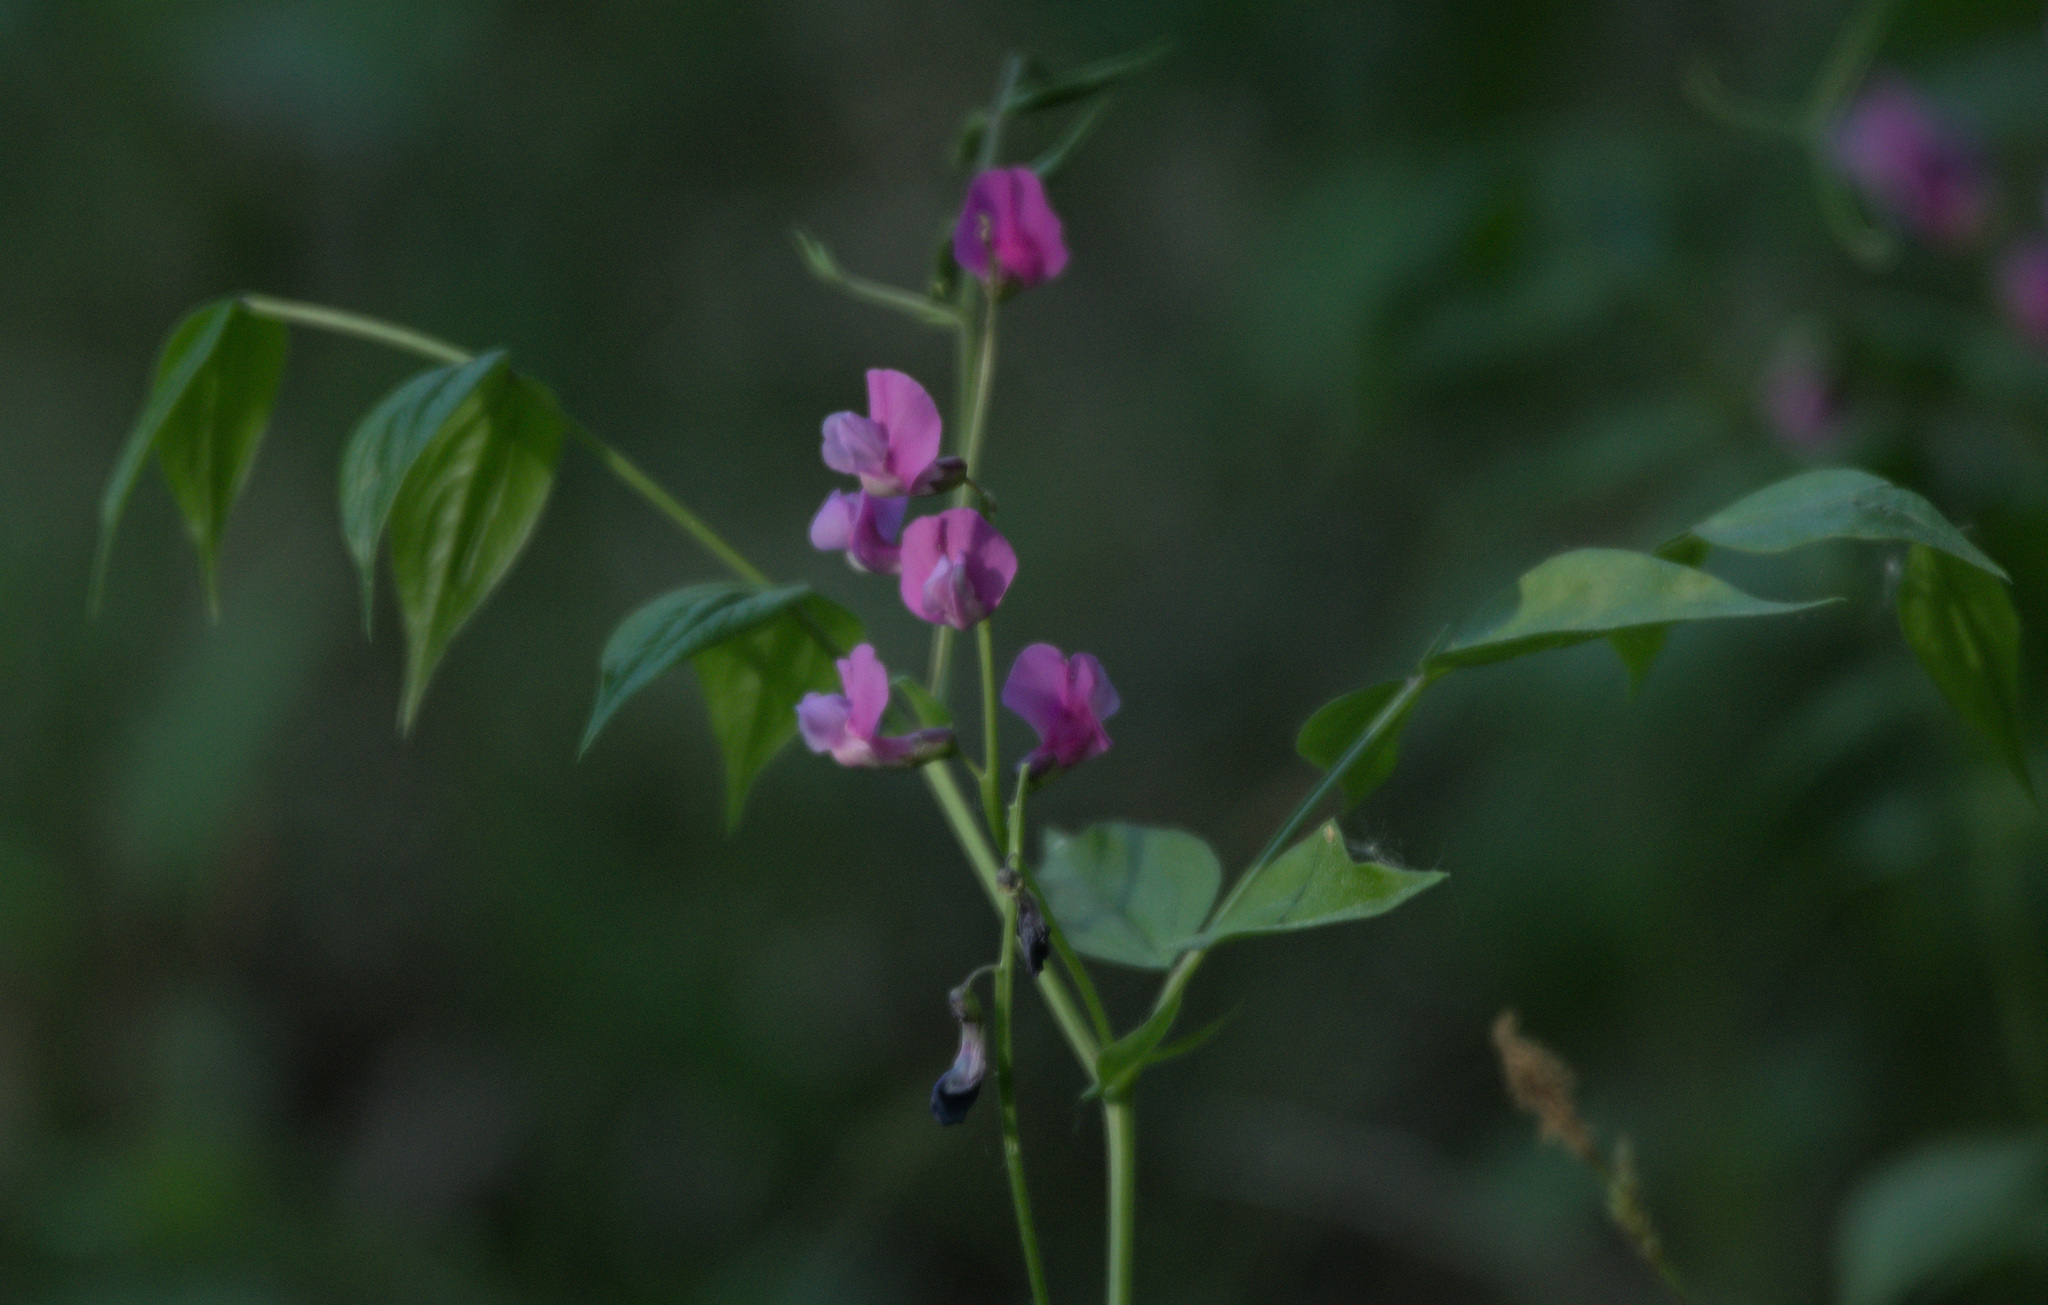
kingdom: Plantae
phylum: Tracheophyta
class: Magnoliopsida
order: Fabales
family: Fabaceae
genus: Lathyrus
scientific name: Lathyrus vernus
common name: Spring pea
